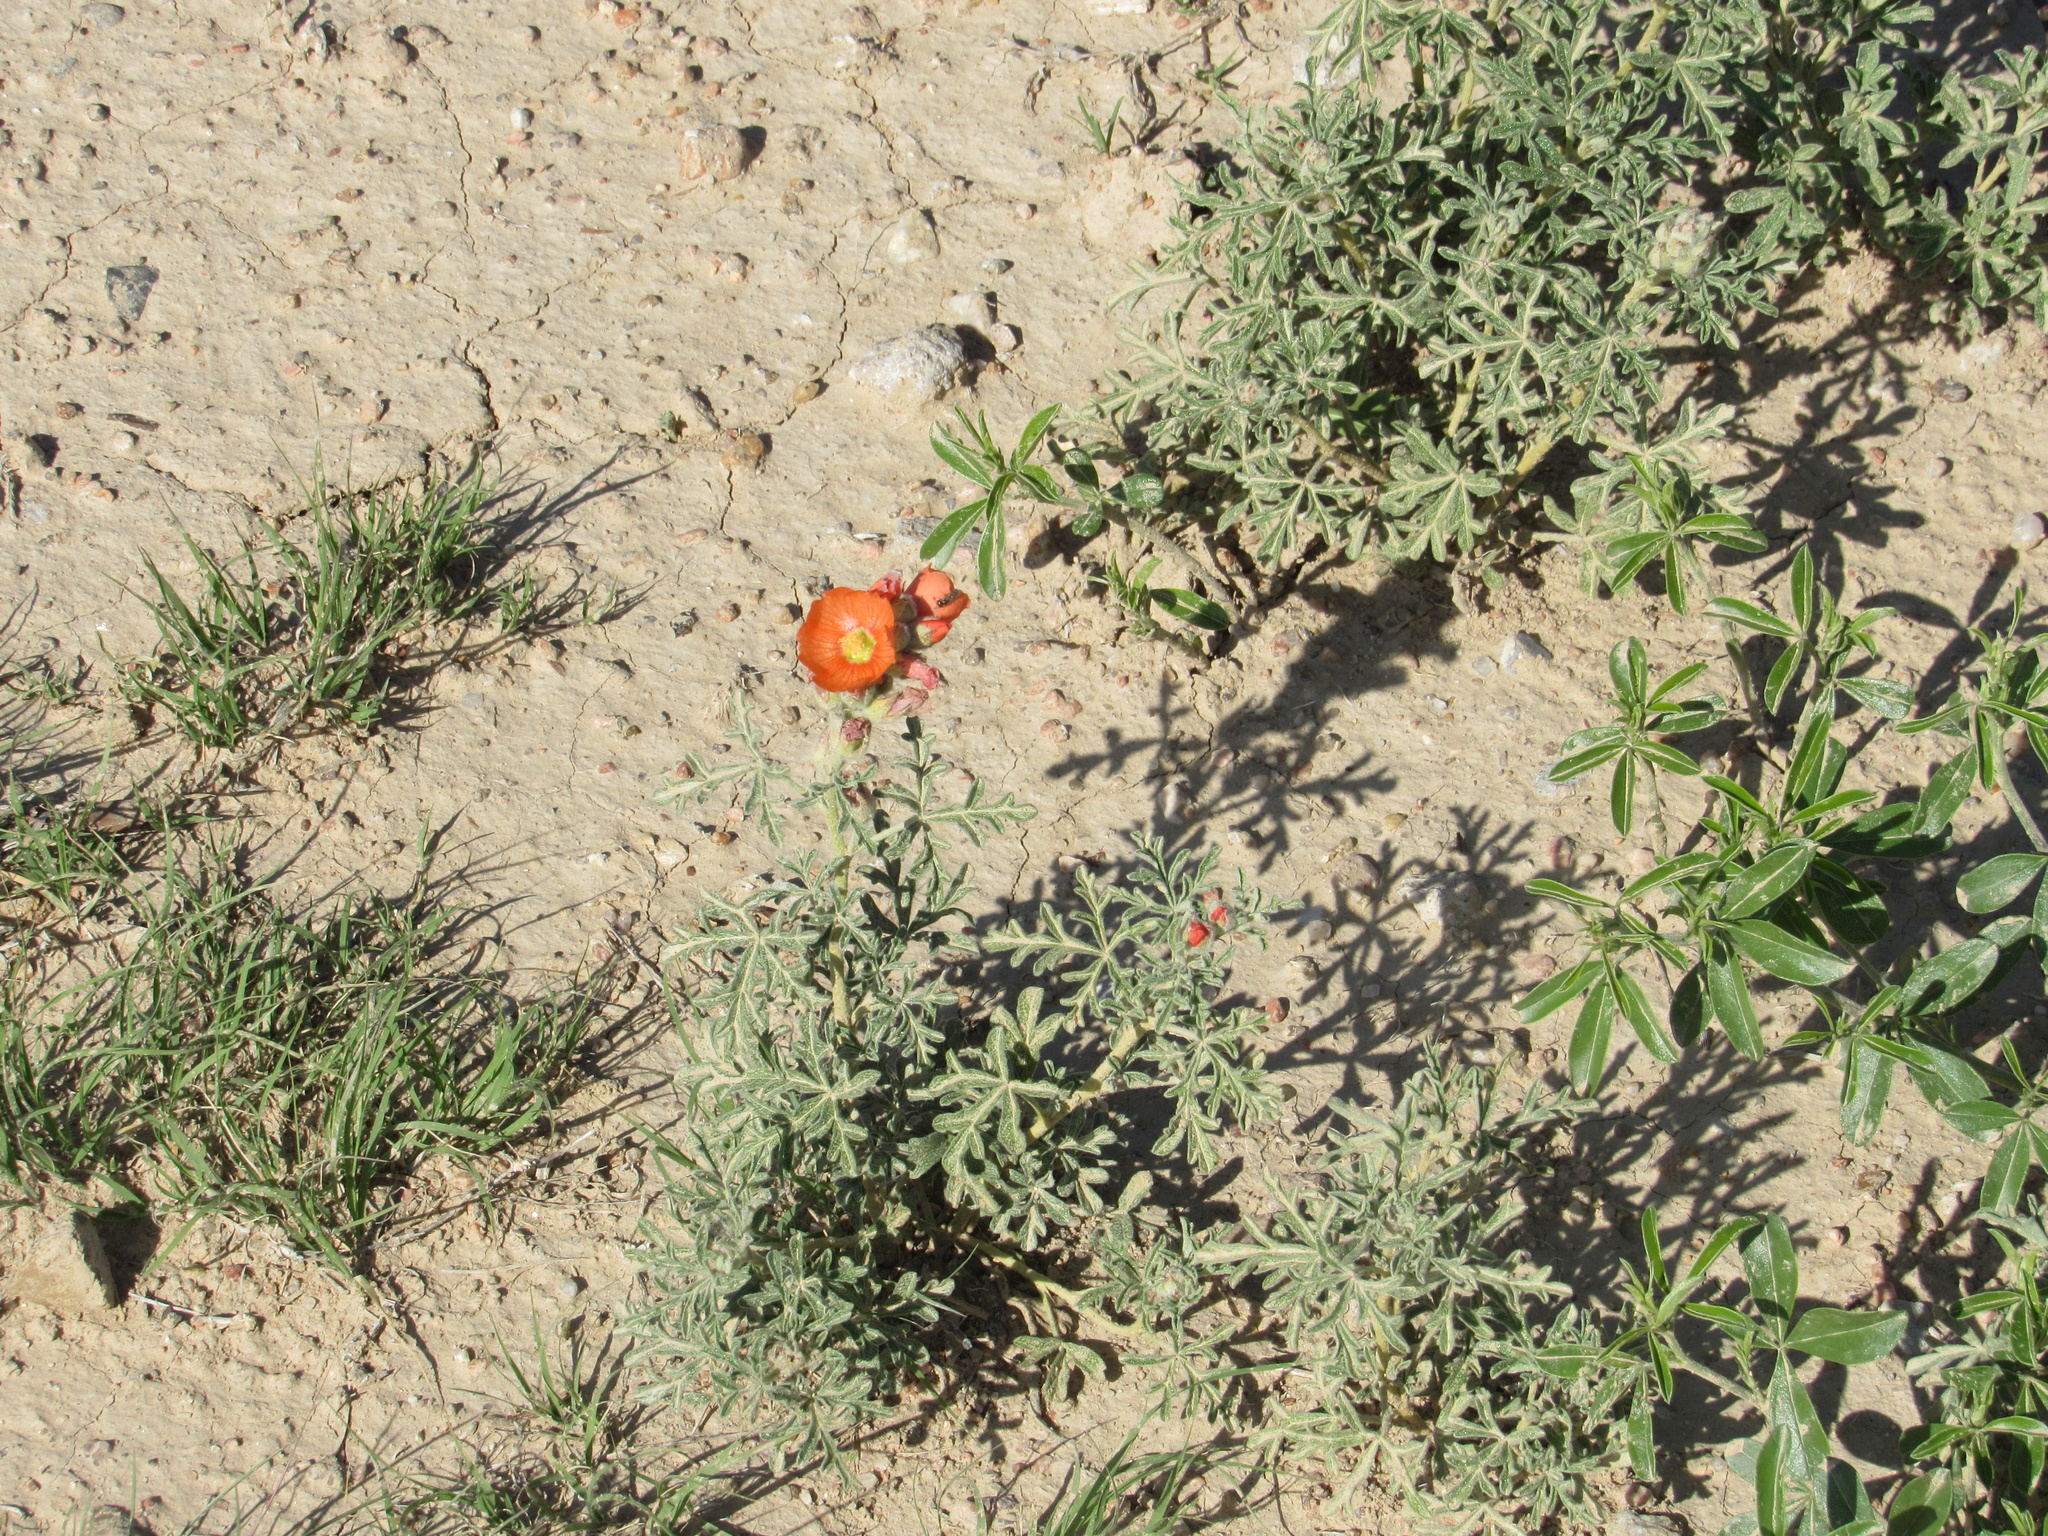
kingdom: Plantae
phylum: Tracheophyta
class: Magnoliopsida
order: Malvales
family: Malvaceae
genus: Sphaeralcea
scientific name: Sphaeralcea coccinea
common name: Moss-rose
